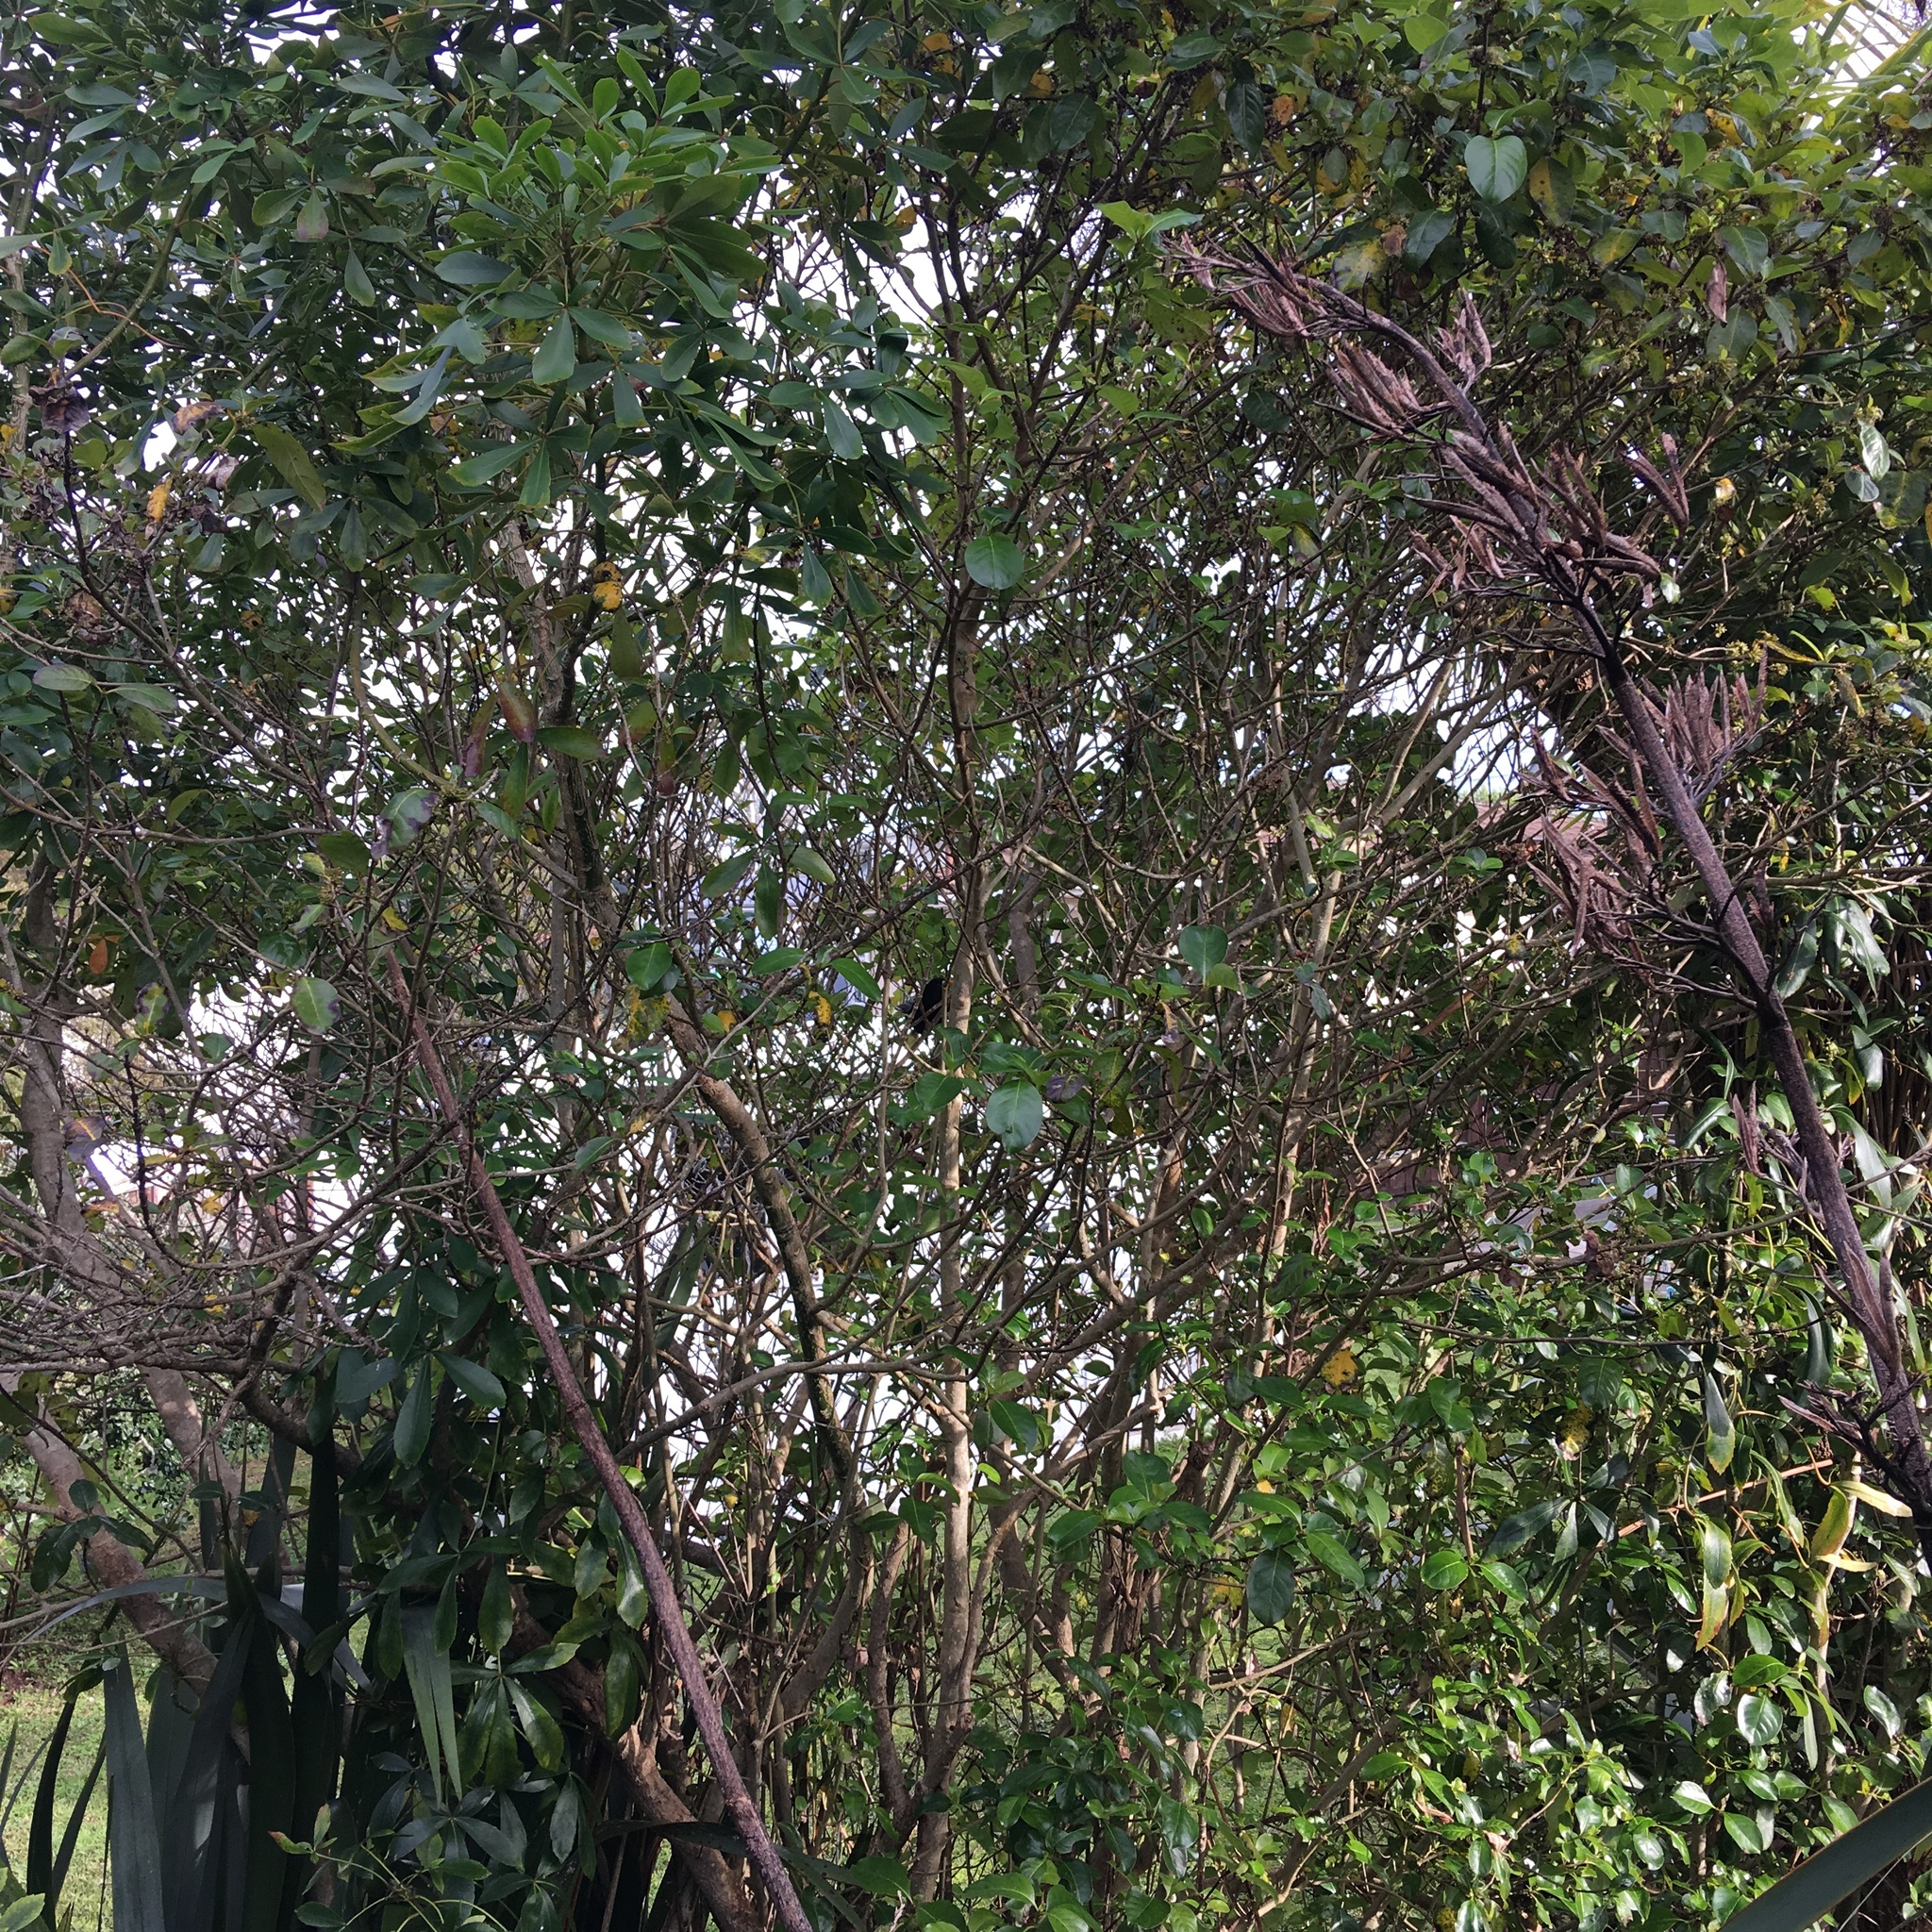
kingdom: Animalia
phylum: Chordata
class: Aves
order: Passeriformes
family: Turdidae
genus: Turdus
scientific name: Turdus merula
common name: Common blackbird
